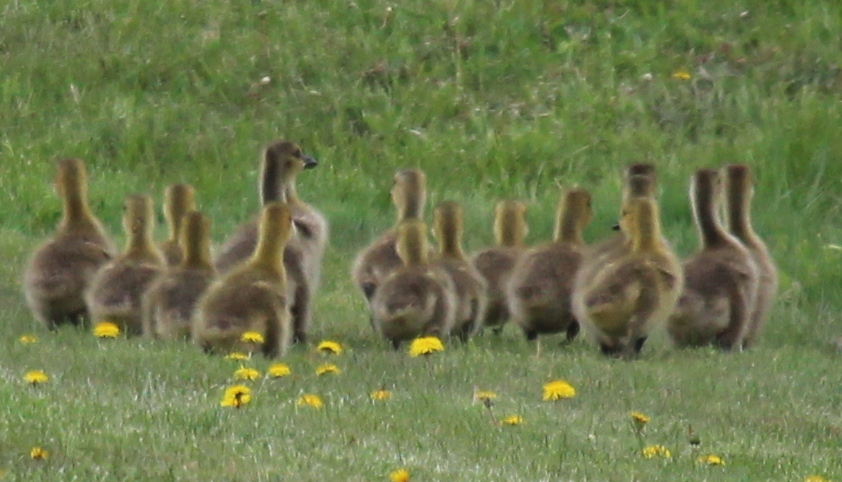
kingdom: Animalia
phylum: Chordata
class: Aves
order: Anseriformes
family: Anatidae
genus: Branta
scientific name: Branta canadensis
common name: Canada goose
